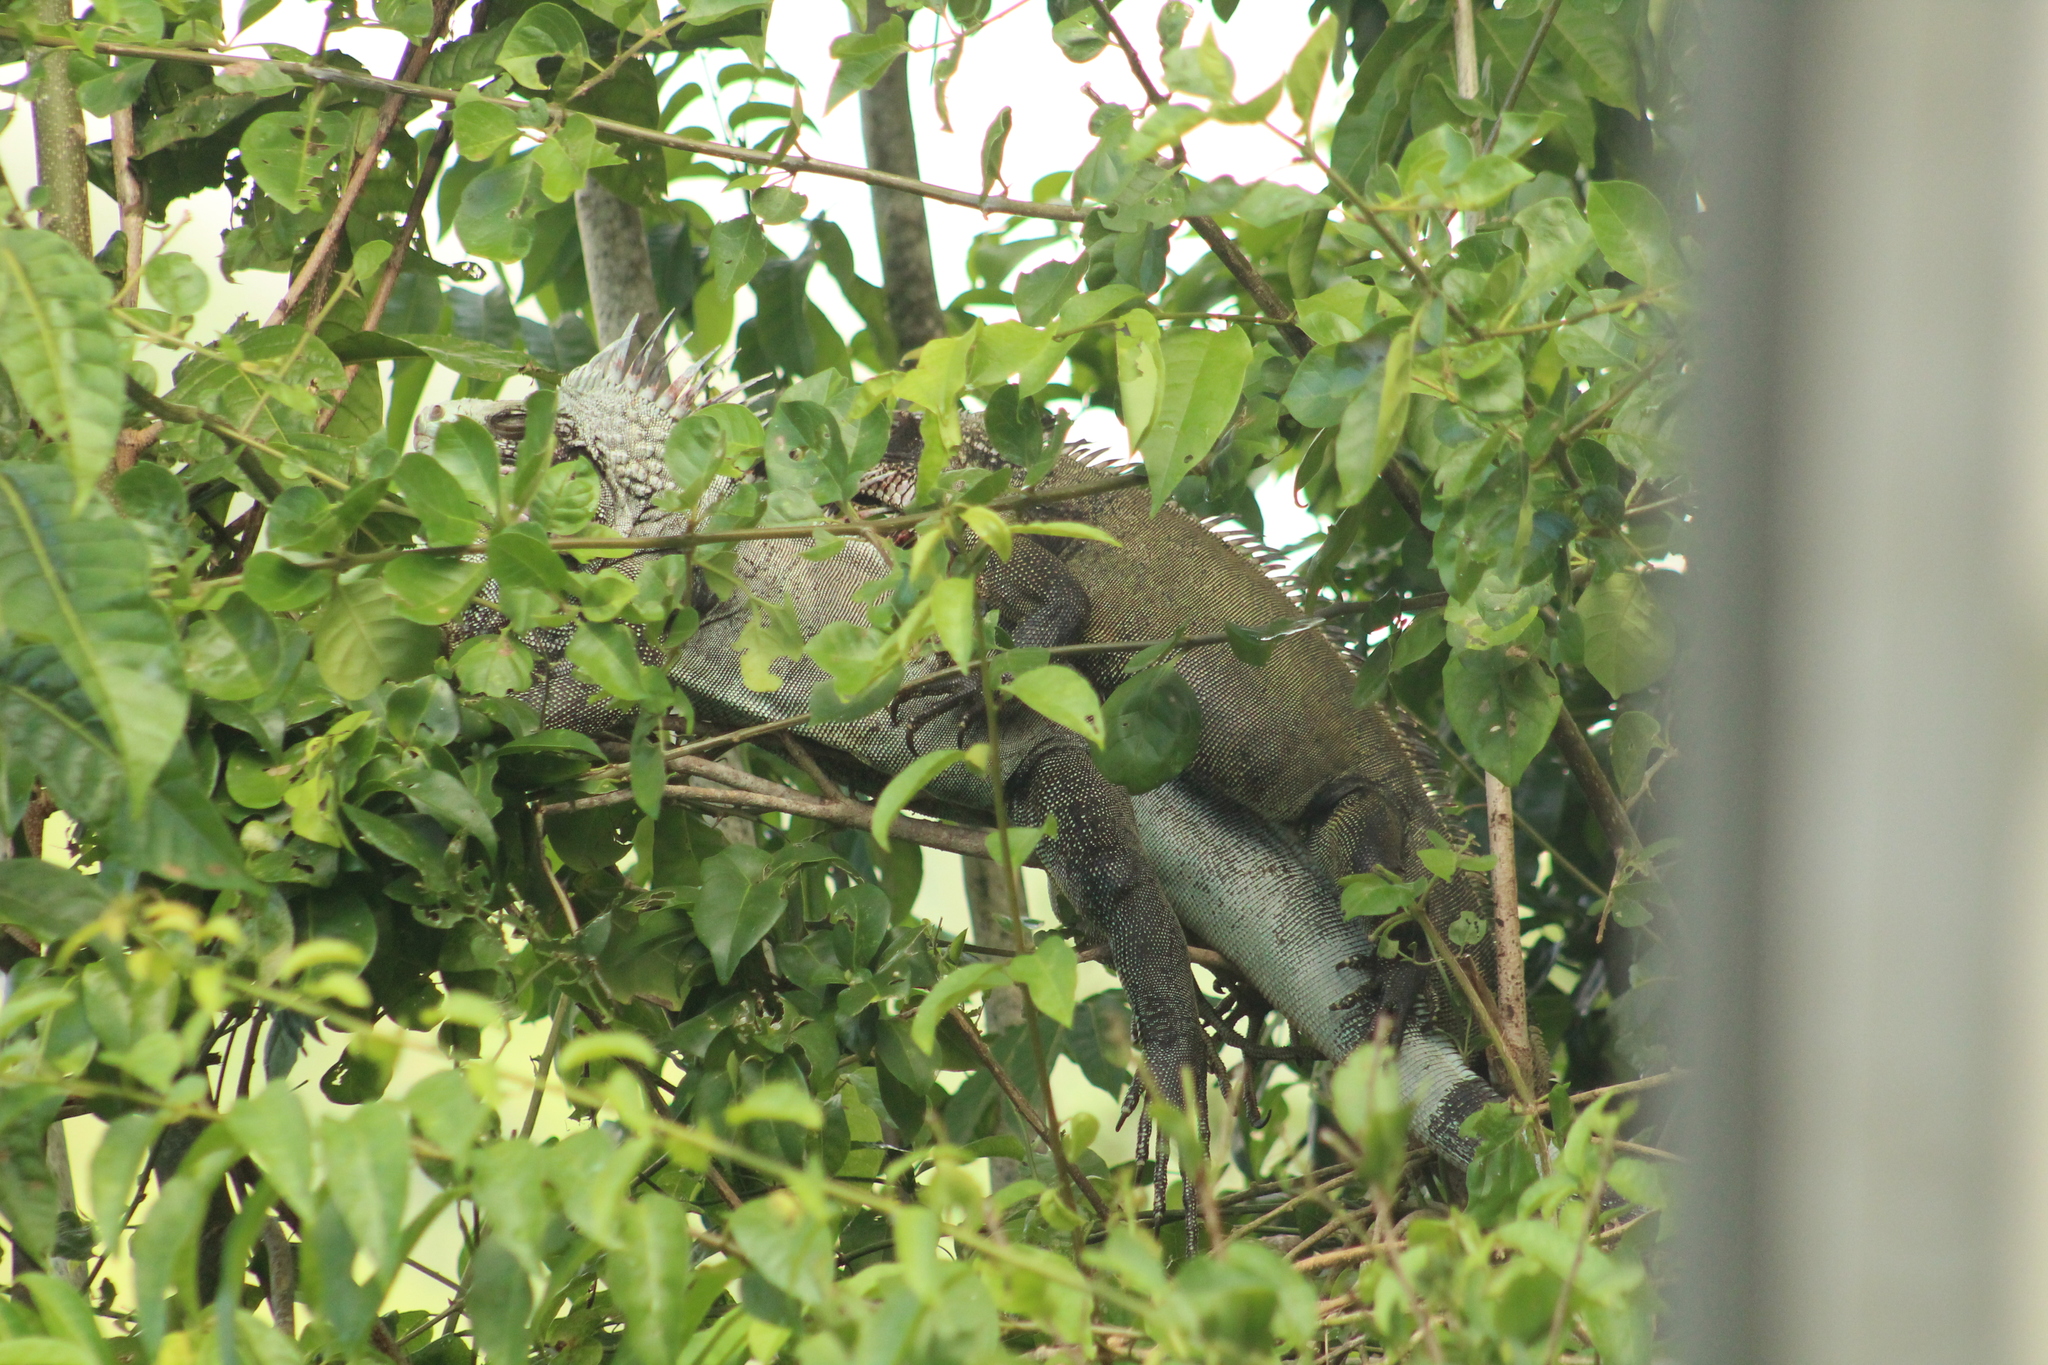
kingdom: Animalia
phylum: Chordata
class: Squamata
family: Iguanidae
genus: Iguana
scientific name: Iguana iguana
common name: Green iguana
